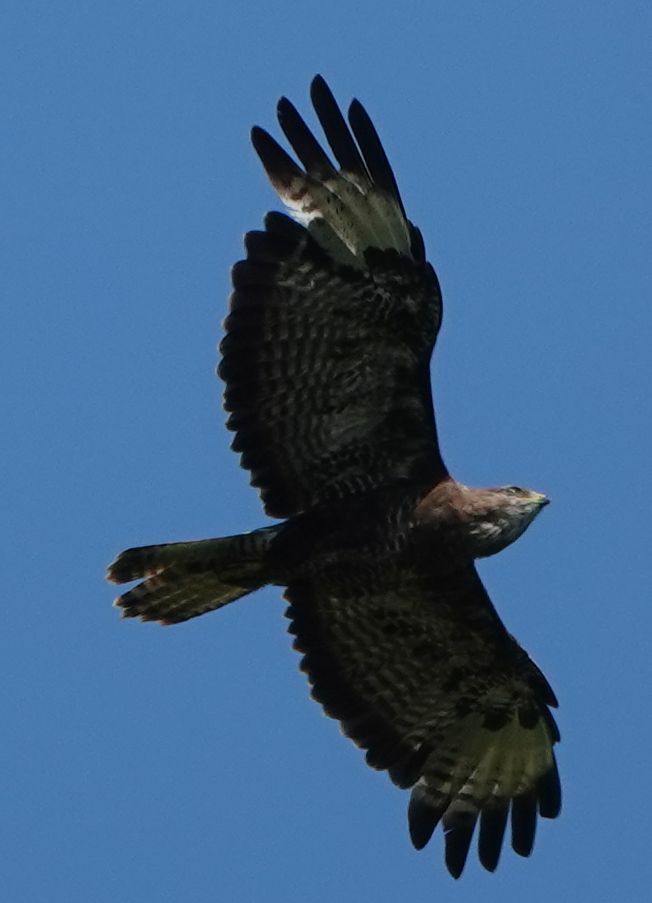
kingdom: Animalia
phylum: Chordata
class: Aves
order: Accipitriformes
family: Accipitridae
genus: Buteo
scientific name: Buteo buteo
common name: Common buzzard
